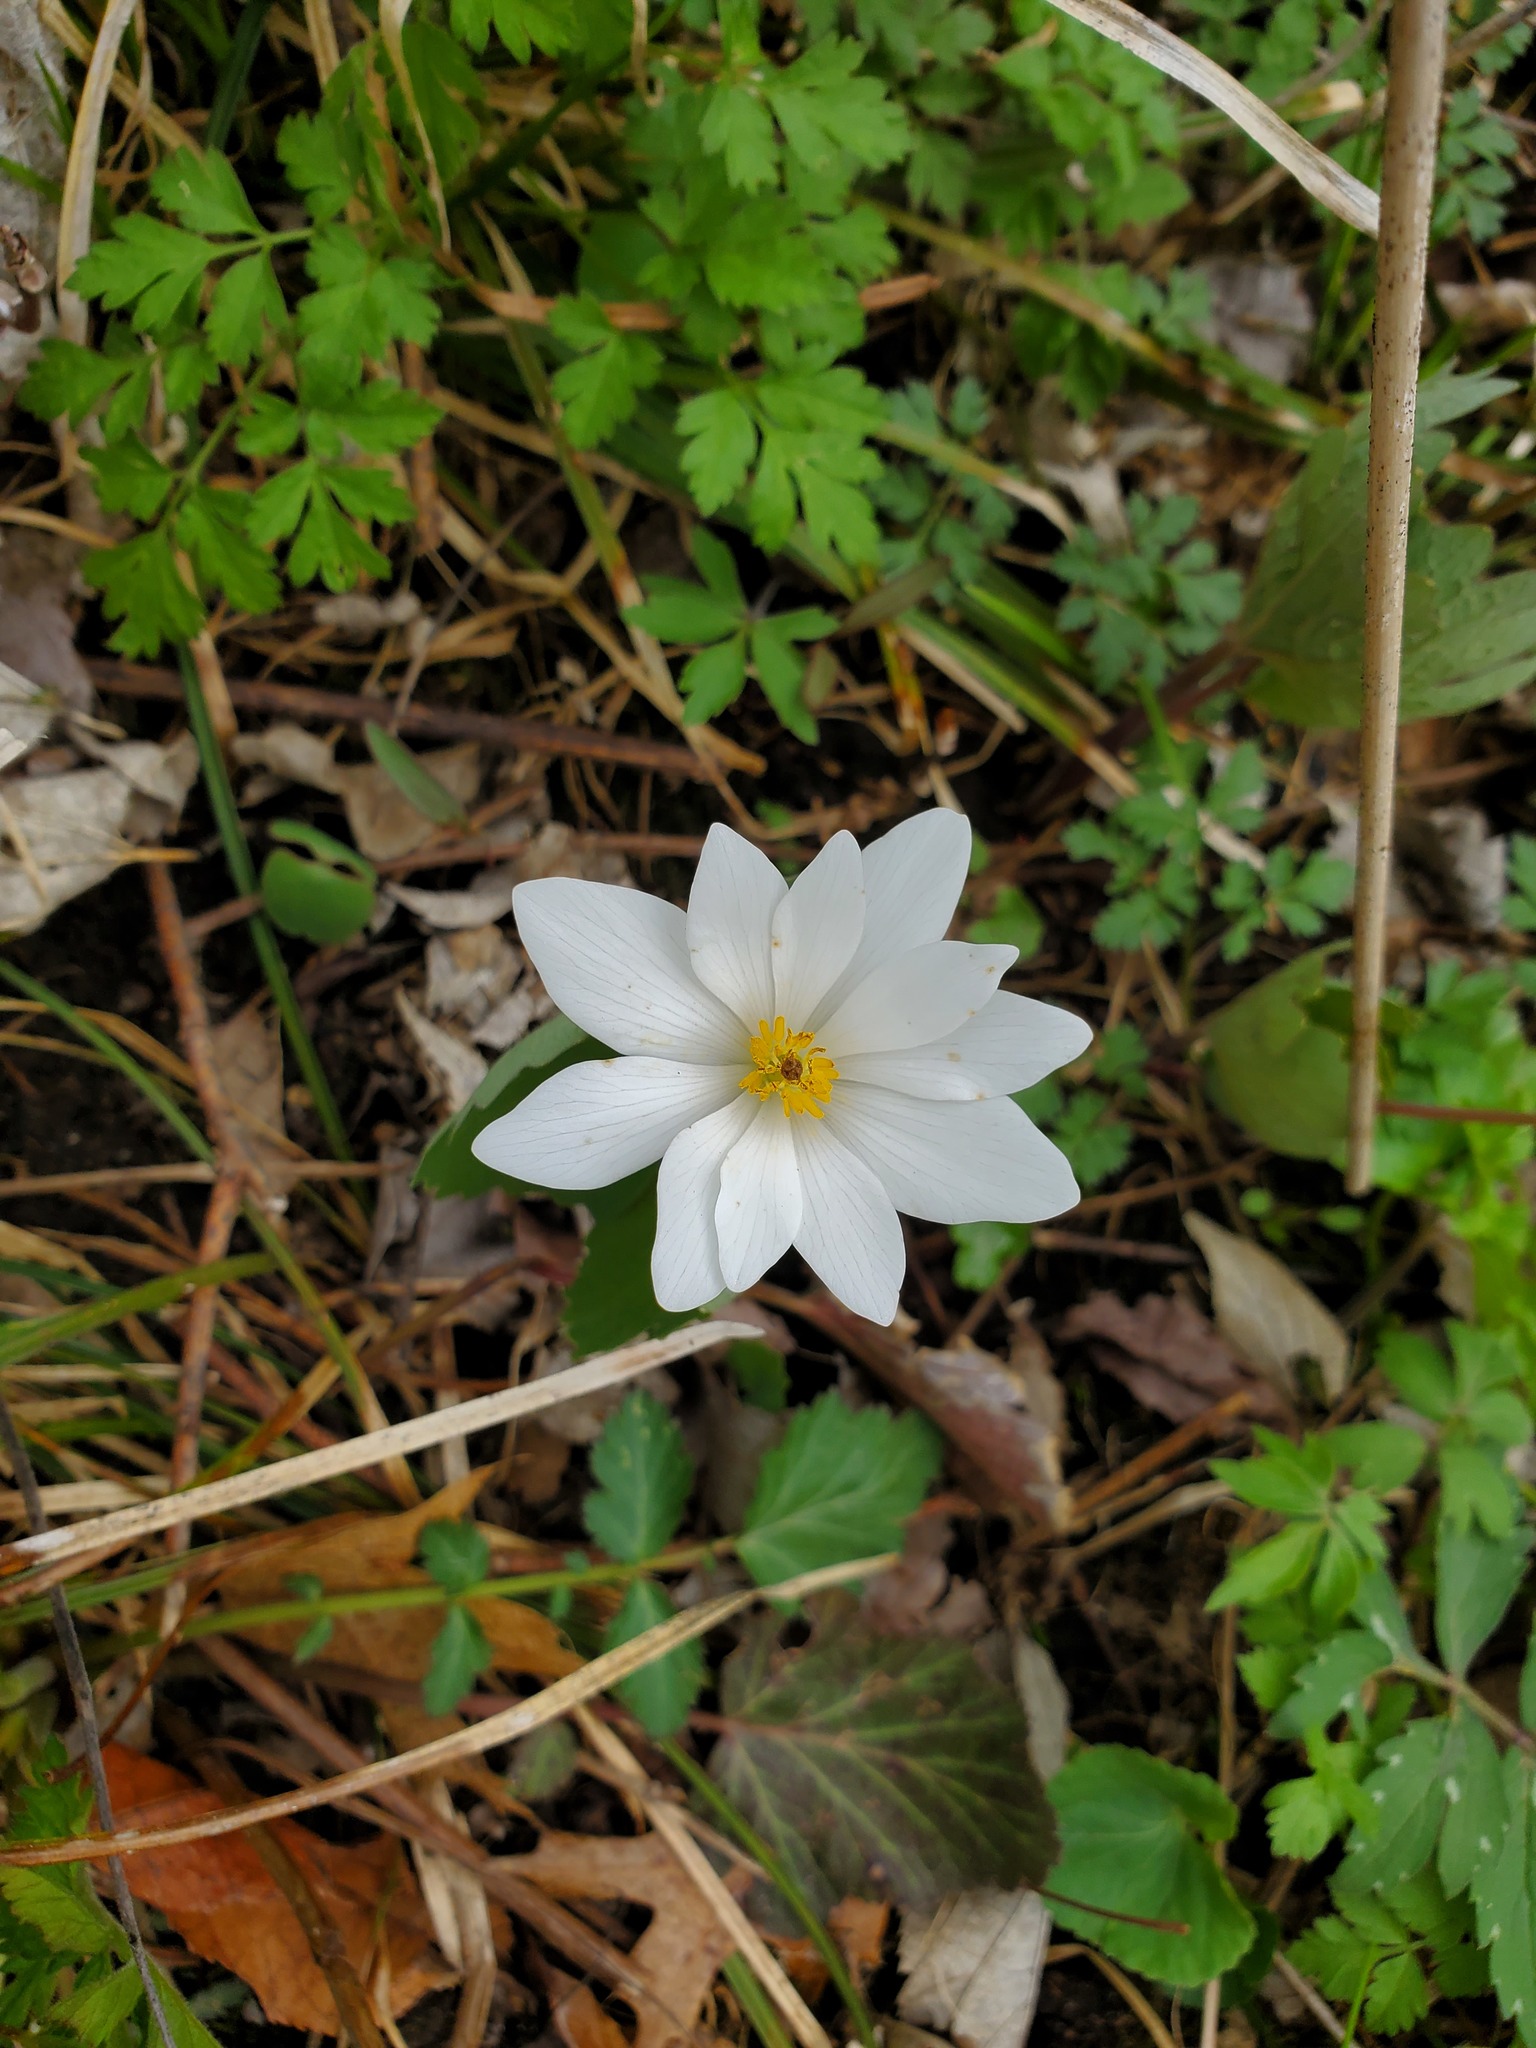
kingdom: Plantae
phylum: Tracheophyta
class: Magnoliopsida
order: Ranunculales
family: Papaveraceae
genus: Sanguinaria
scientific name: Sanguinaria canadensis
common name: Bloodroot
